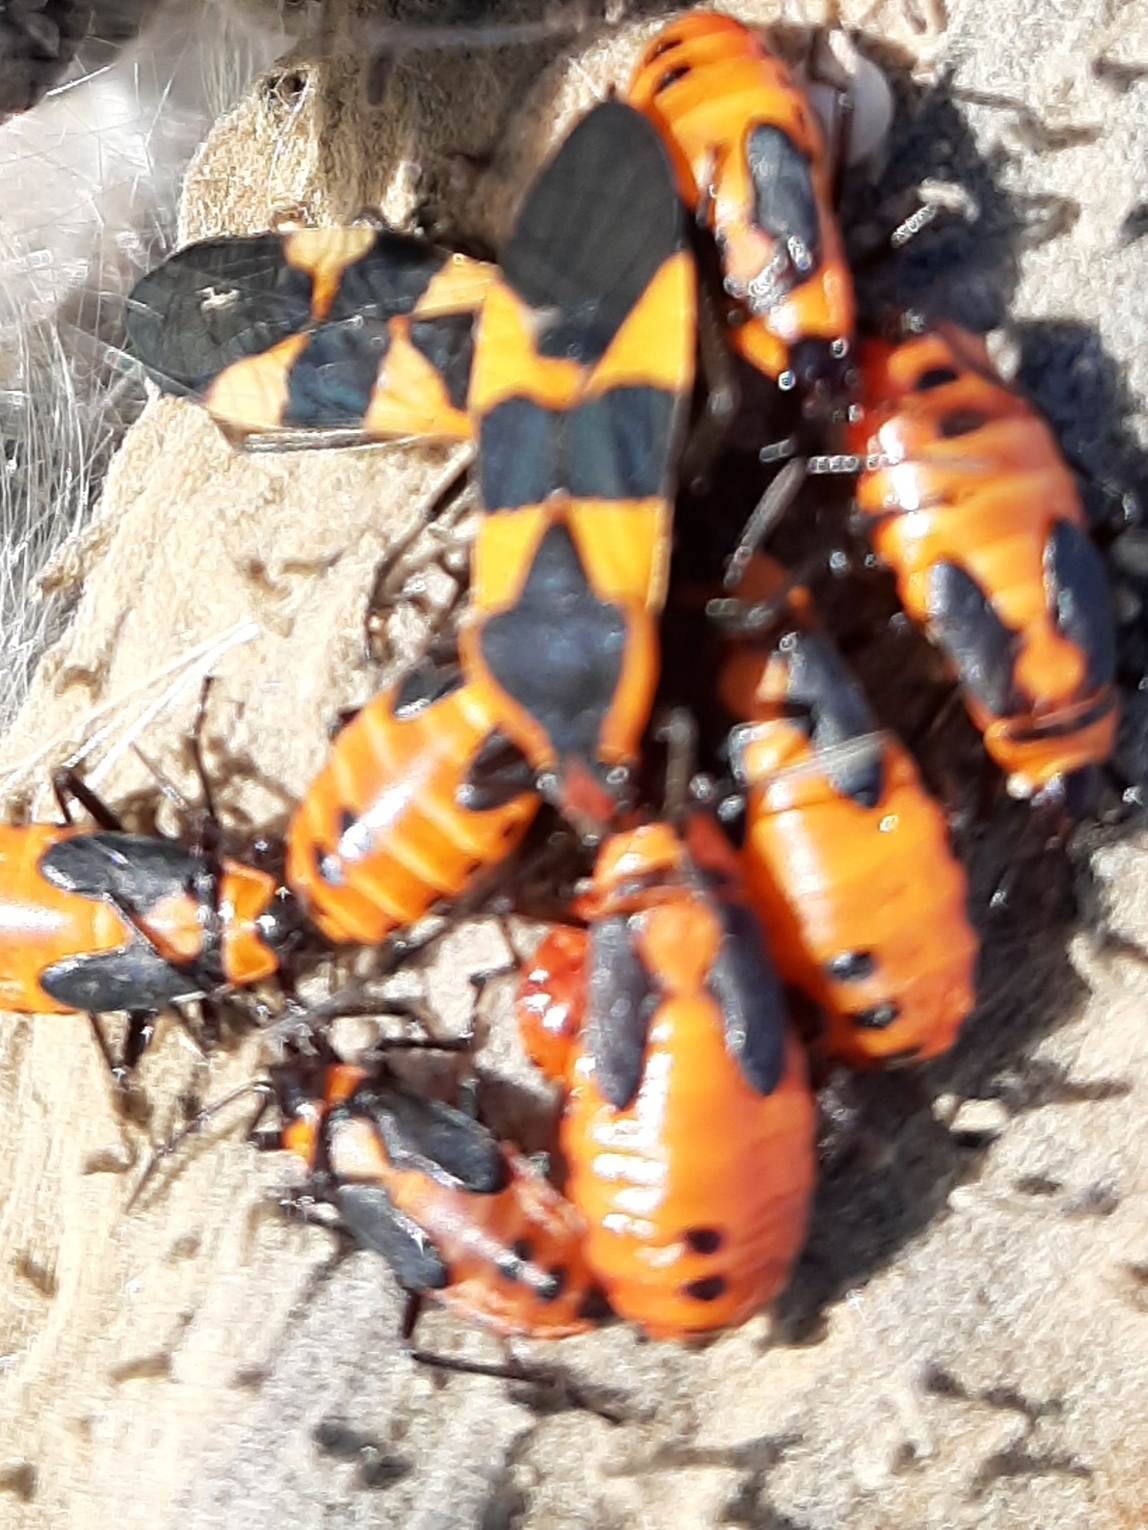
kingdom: Animalia
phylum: Arthropoda
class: Insecta
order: Hemiptera
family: Lygaeidae
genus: Oncopeltus
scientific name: Oncopeltus fasciatus
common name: Large milkweed bug
